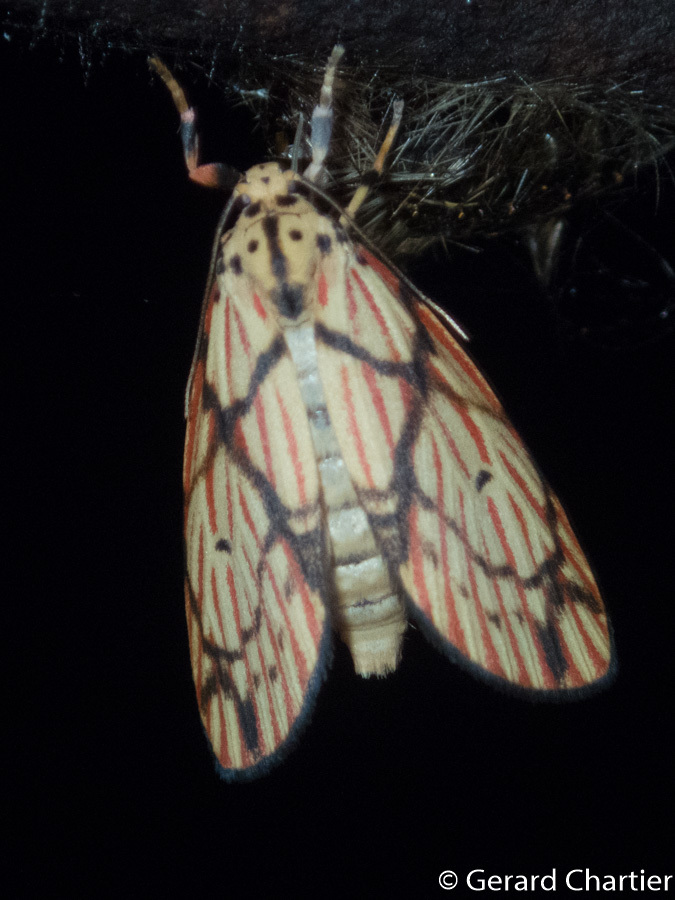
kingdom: Animalia
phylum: Arthropoda
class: Insecta
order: Lepidoptera
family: Erebidae
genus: Barsilene
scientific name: Barsilene pallinflexa
